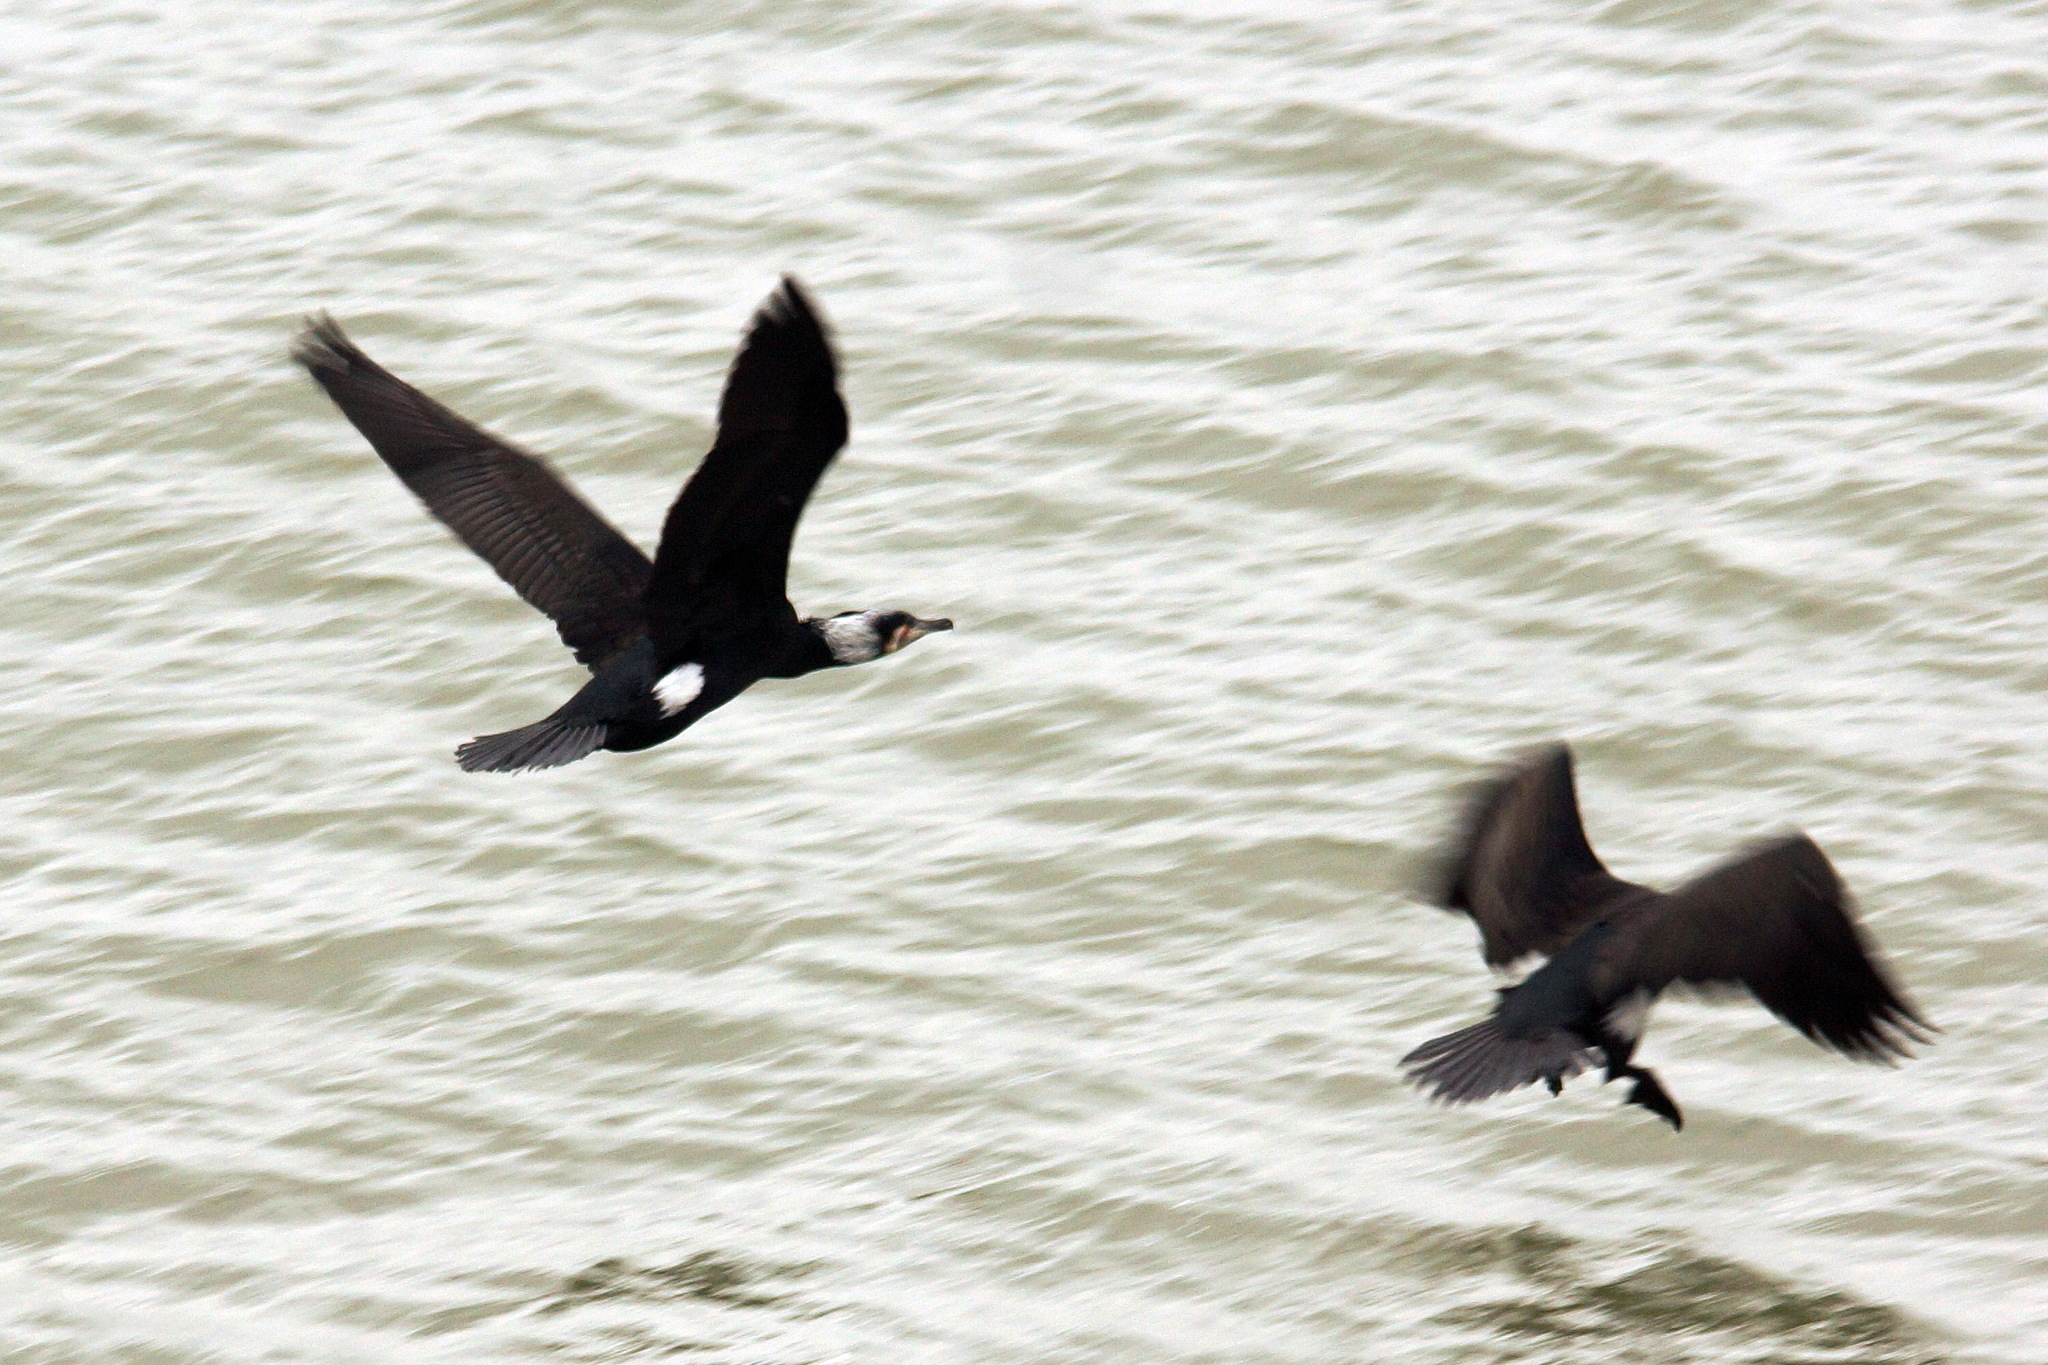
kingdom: Animalia
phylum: Chordata
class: Aves
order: Suliformes
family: Phalacrocoracidae
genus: Phalacrocorax
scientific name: Phalacrocorax carbo
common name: Great cormorant
